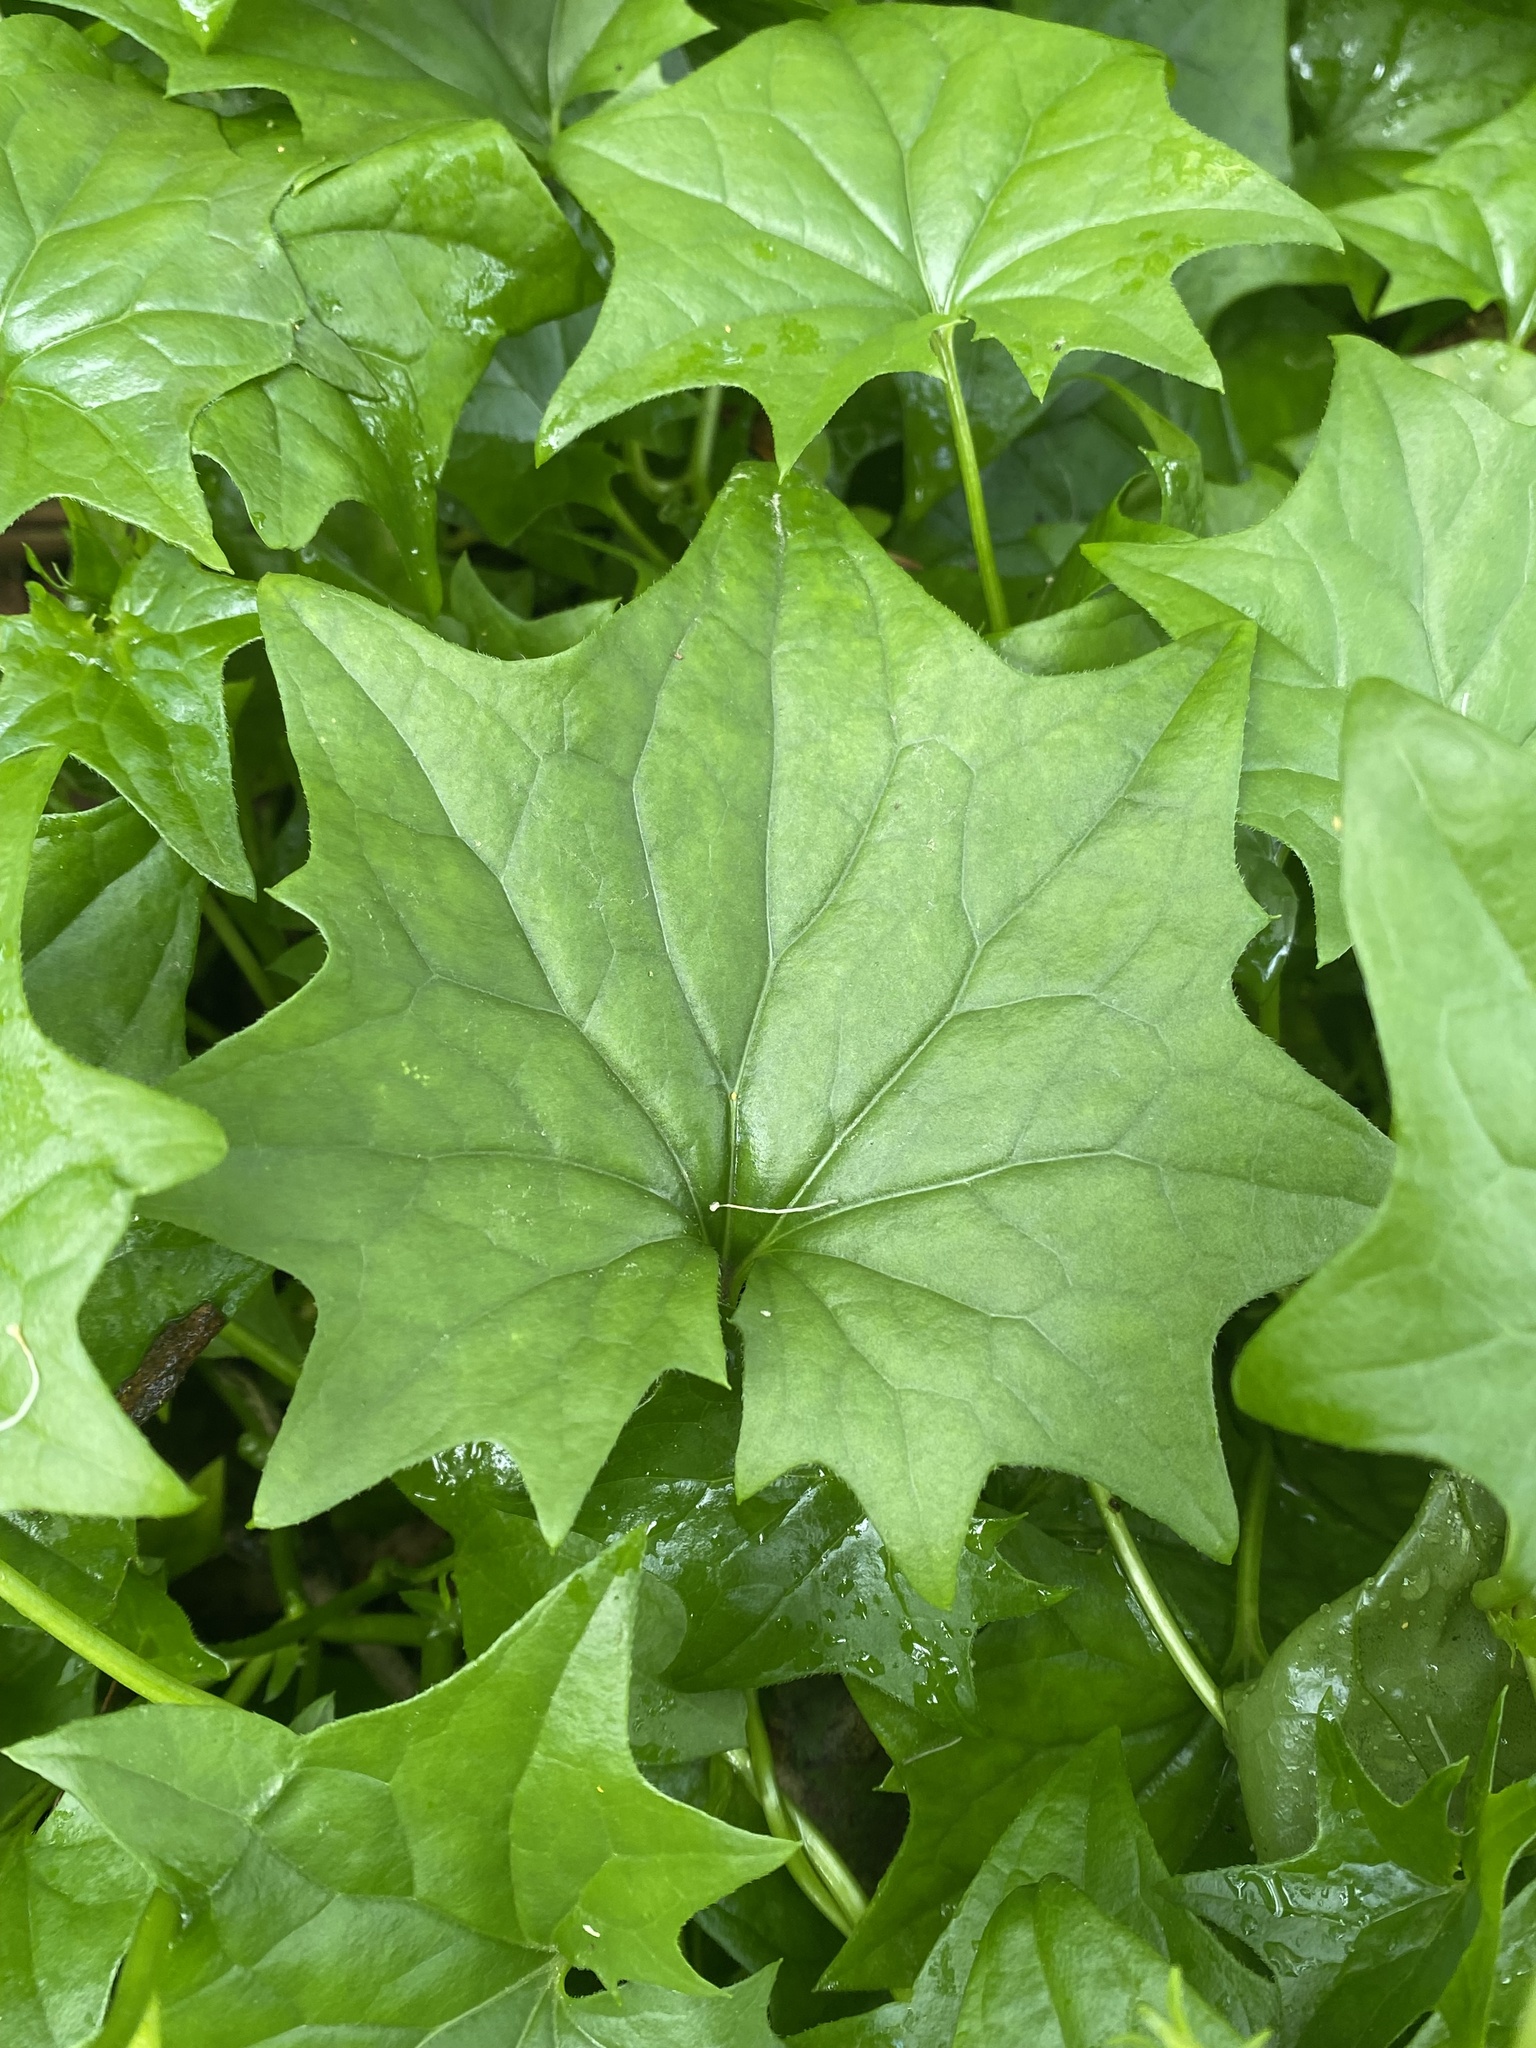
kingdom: Plantae
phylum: Tracheophyta
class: Magnoliopsida
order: Asterales
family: Asteraceae
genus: Delairea
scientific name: Delairea odorata
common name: Cape-ivy
